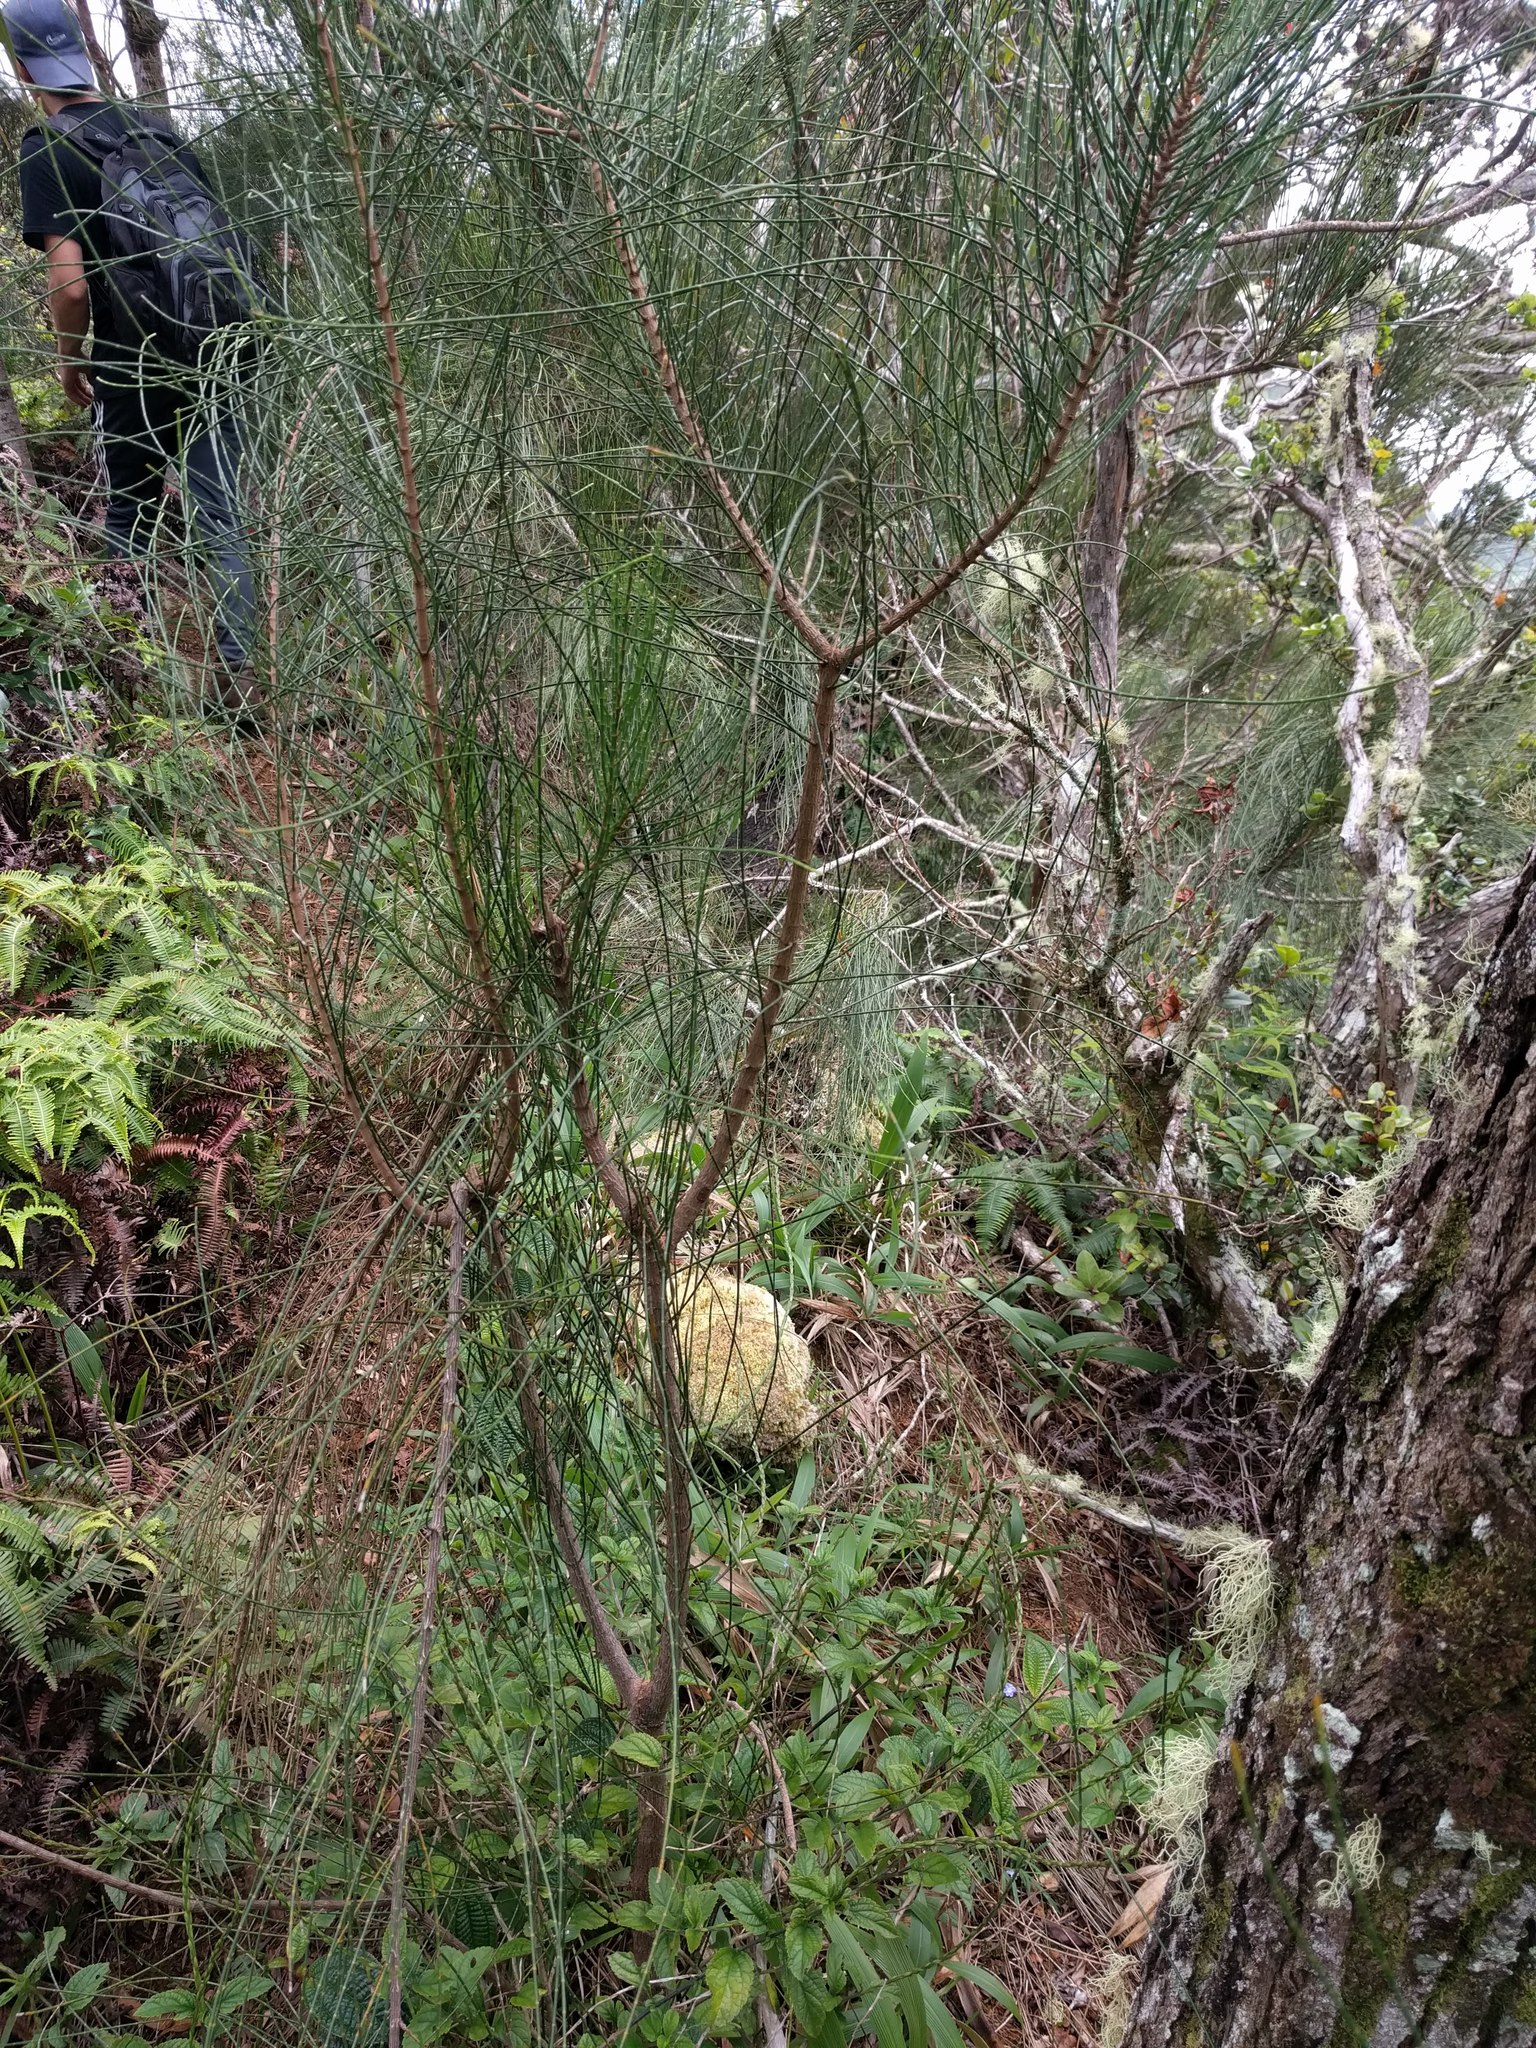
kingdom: Plantae
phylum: Tracheophyta
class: Magnoliopsida
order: Fagales
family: Casuarinaceae
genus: Casuarina
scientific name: Casuarina equisetifolia
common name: Beach sheoak
